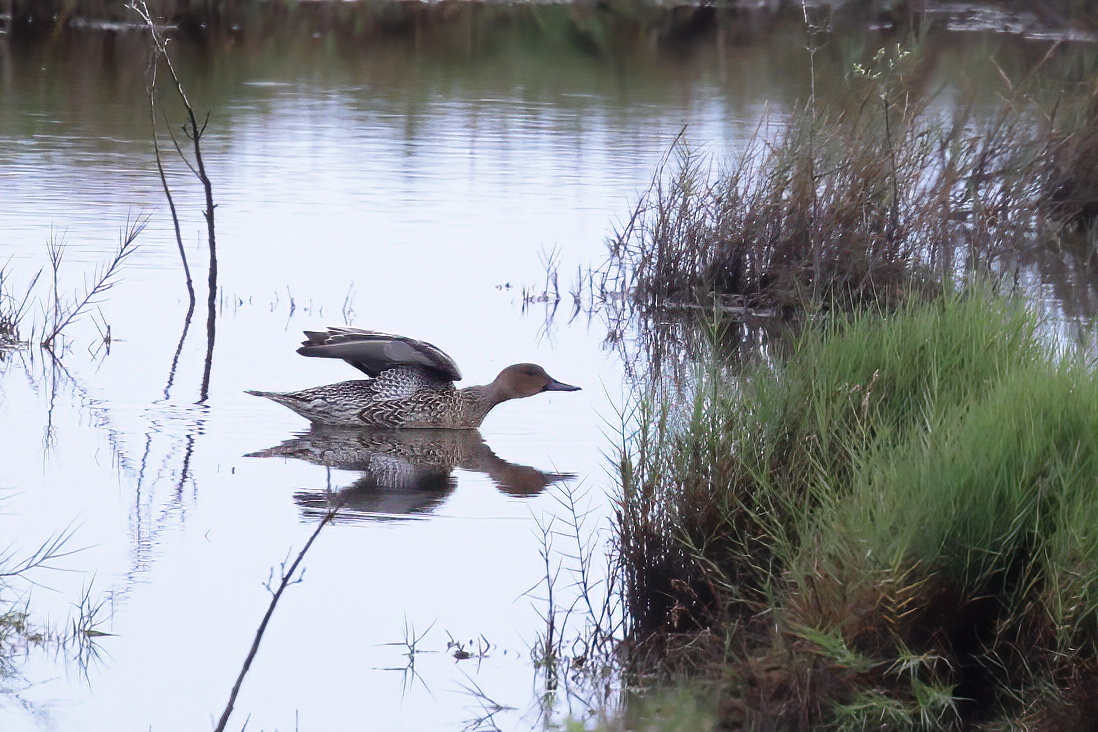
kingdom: Animalia
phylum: Chordata
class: Aves
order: Anseriformes
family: Anatidae
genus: Anas
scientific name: Anas acuta
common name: Northern pintail
